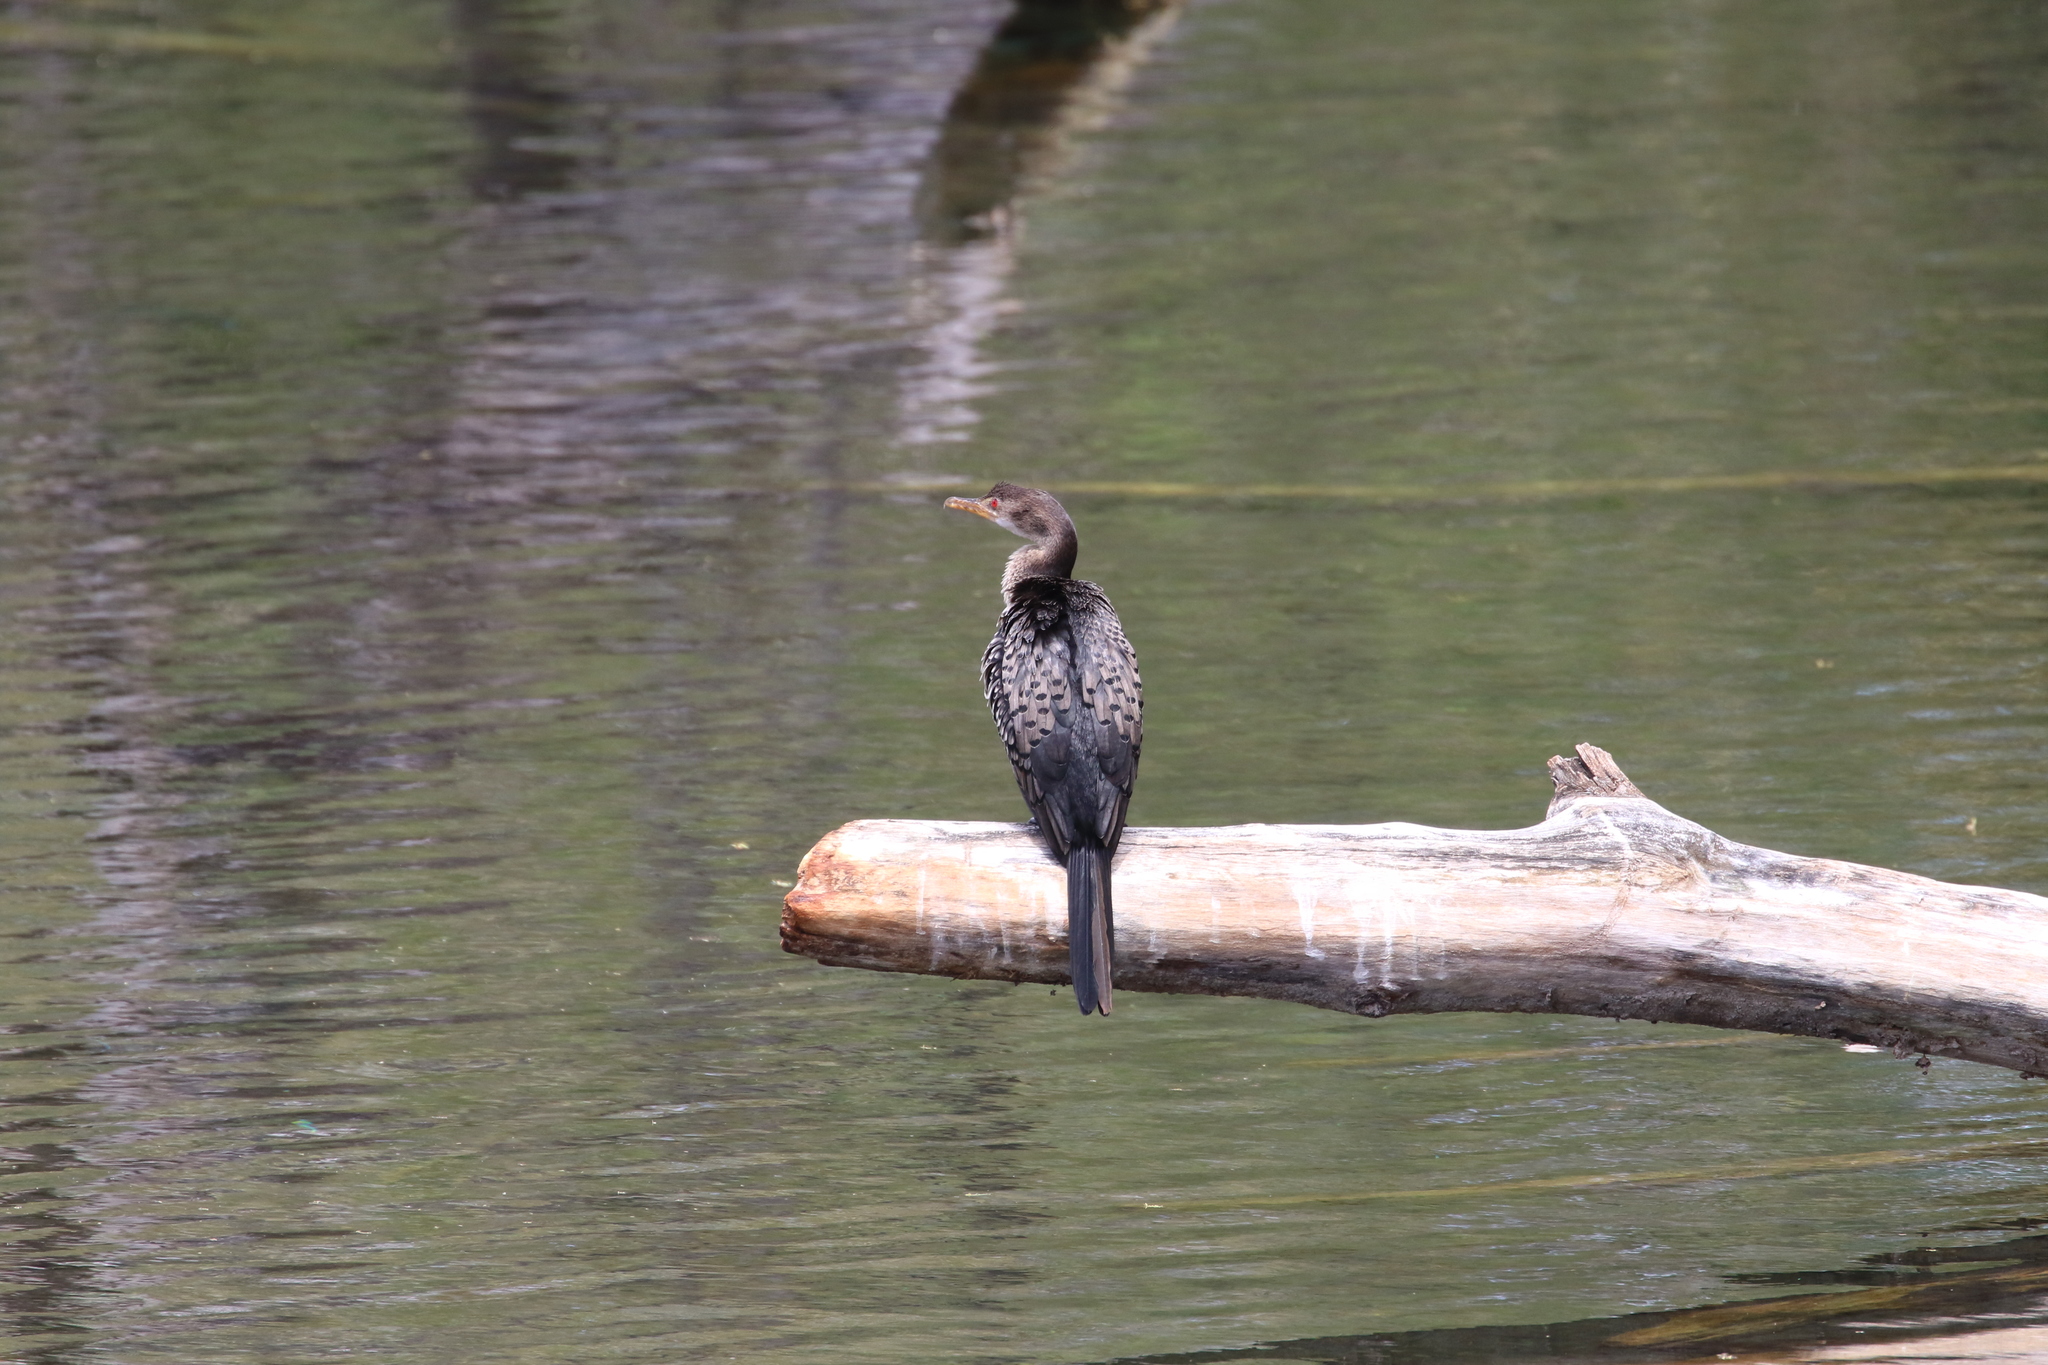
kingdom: Animalia
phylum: Chordata
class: Aves
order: Suliformes
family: Phalacrocoracidae
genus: Microcarbo
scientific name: Microcarbo africanus
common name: Long-tailed cormorant
